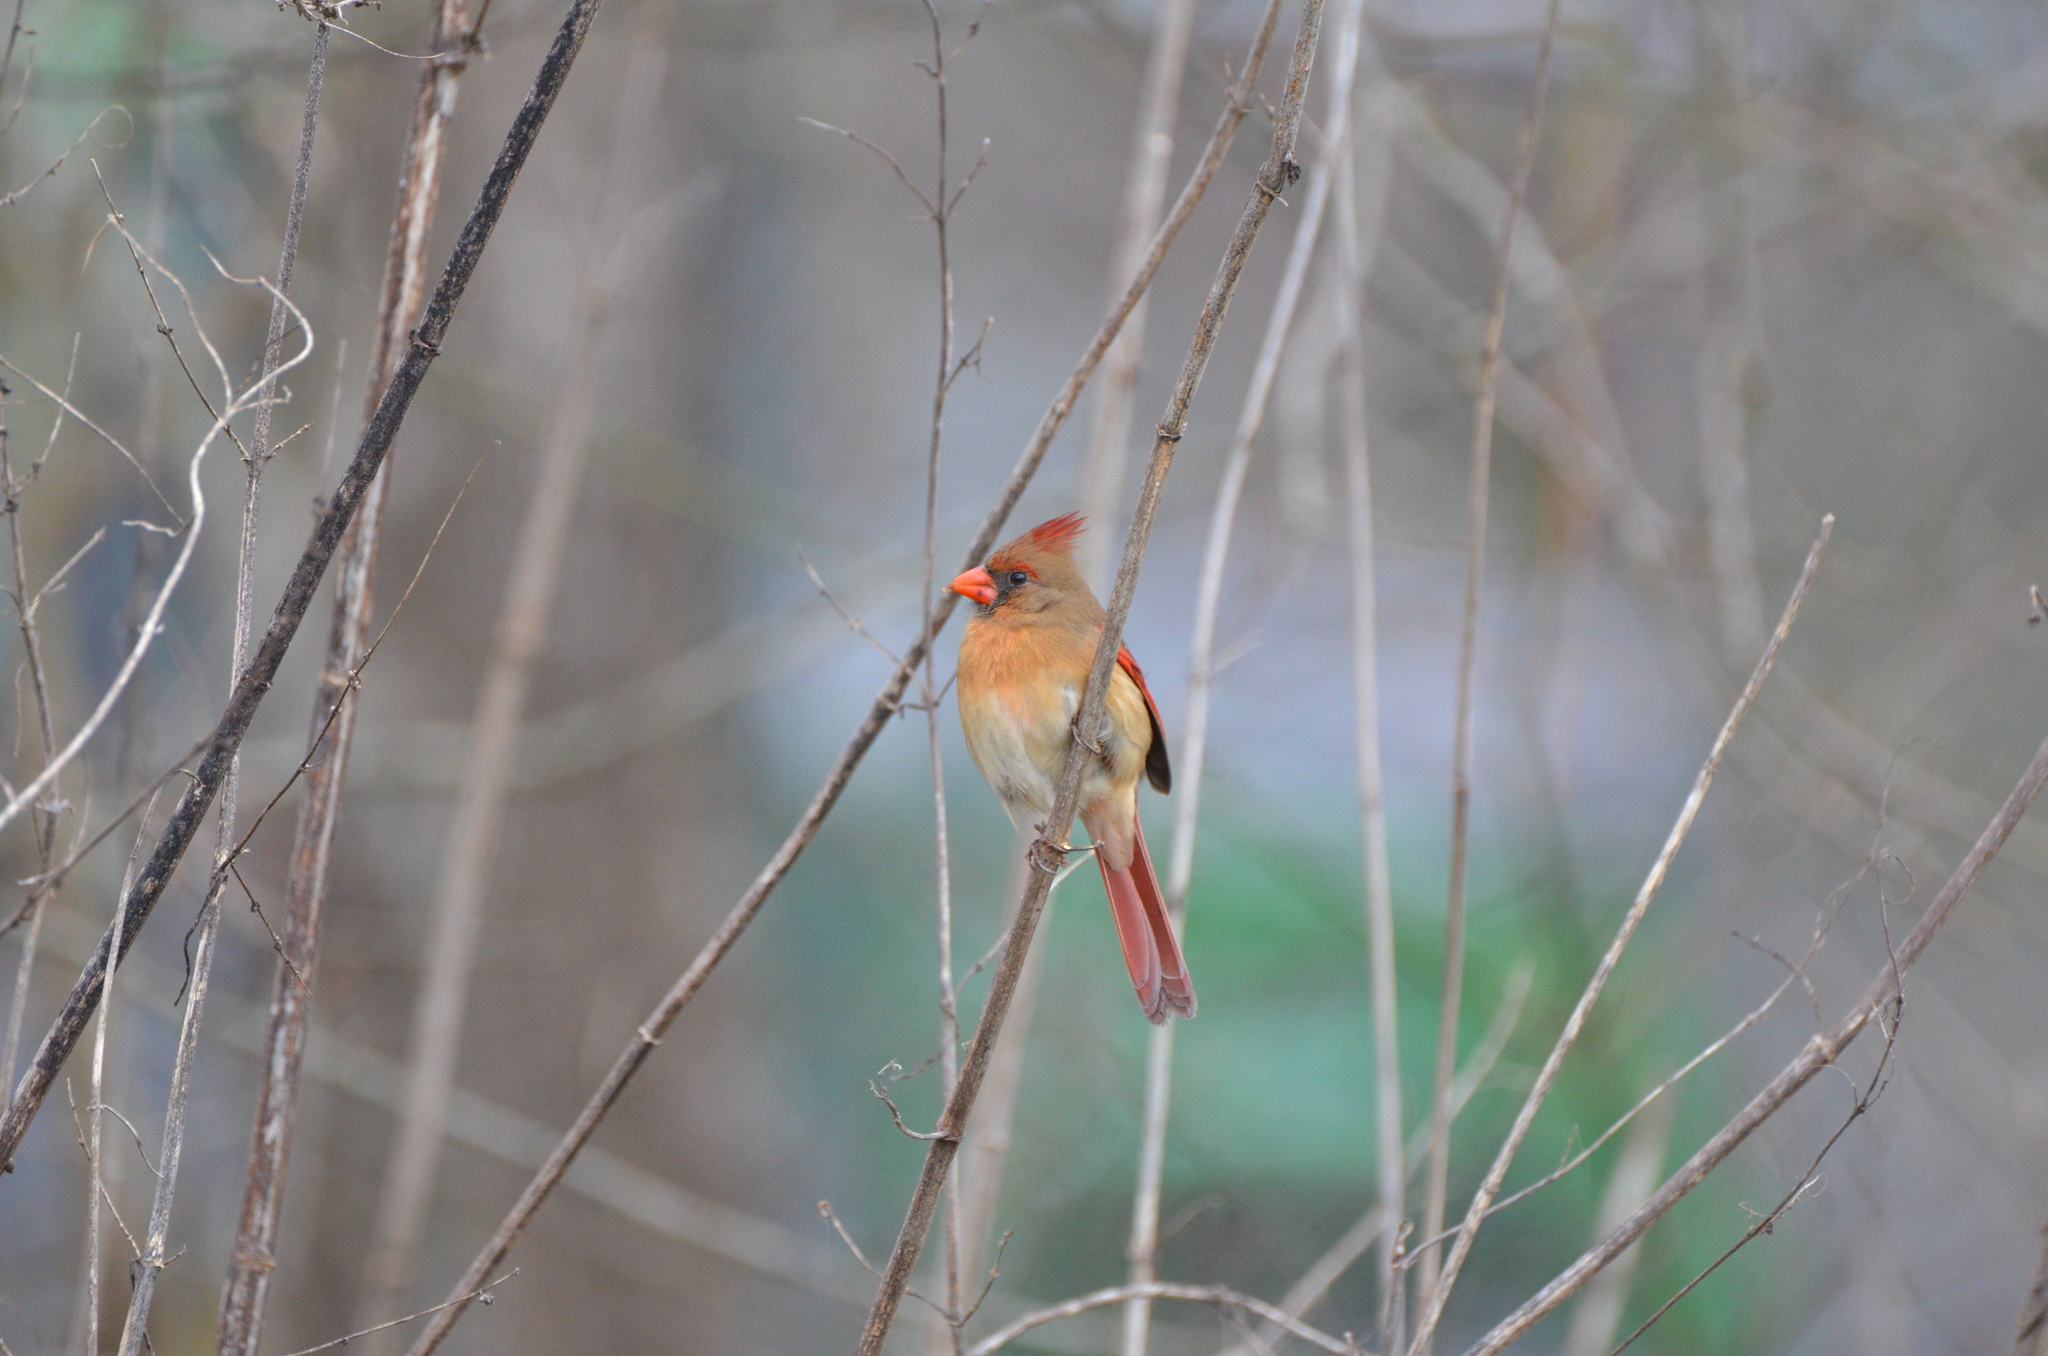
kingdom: Animalia
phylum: Chordata
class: Aves
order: Passeriformes
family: Cardinalidae
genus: Cardinalis
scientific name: Cardinalis cardinalis
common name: Northern cardinal
